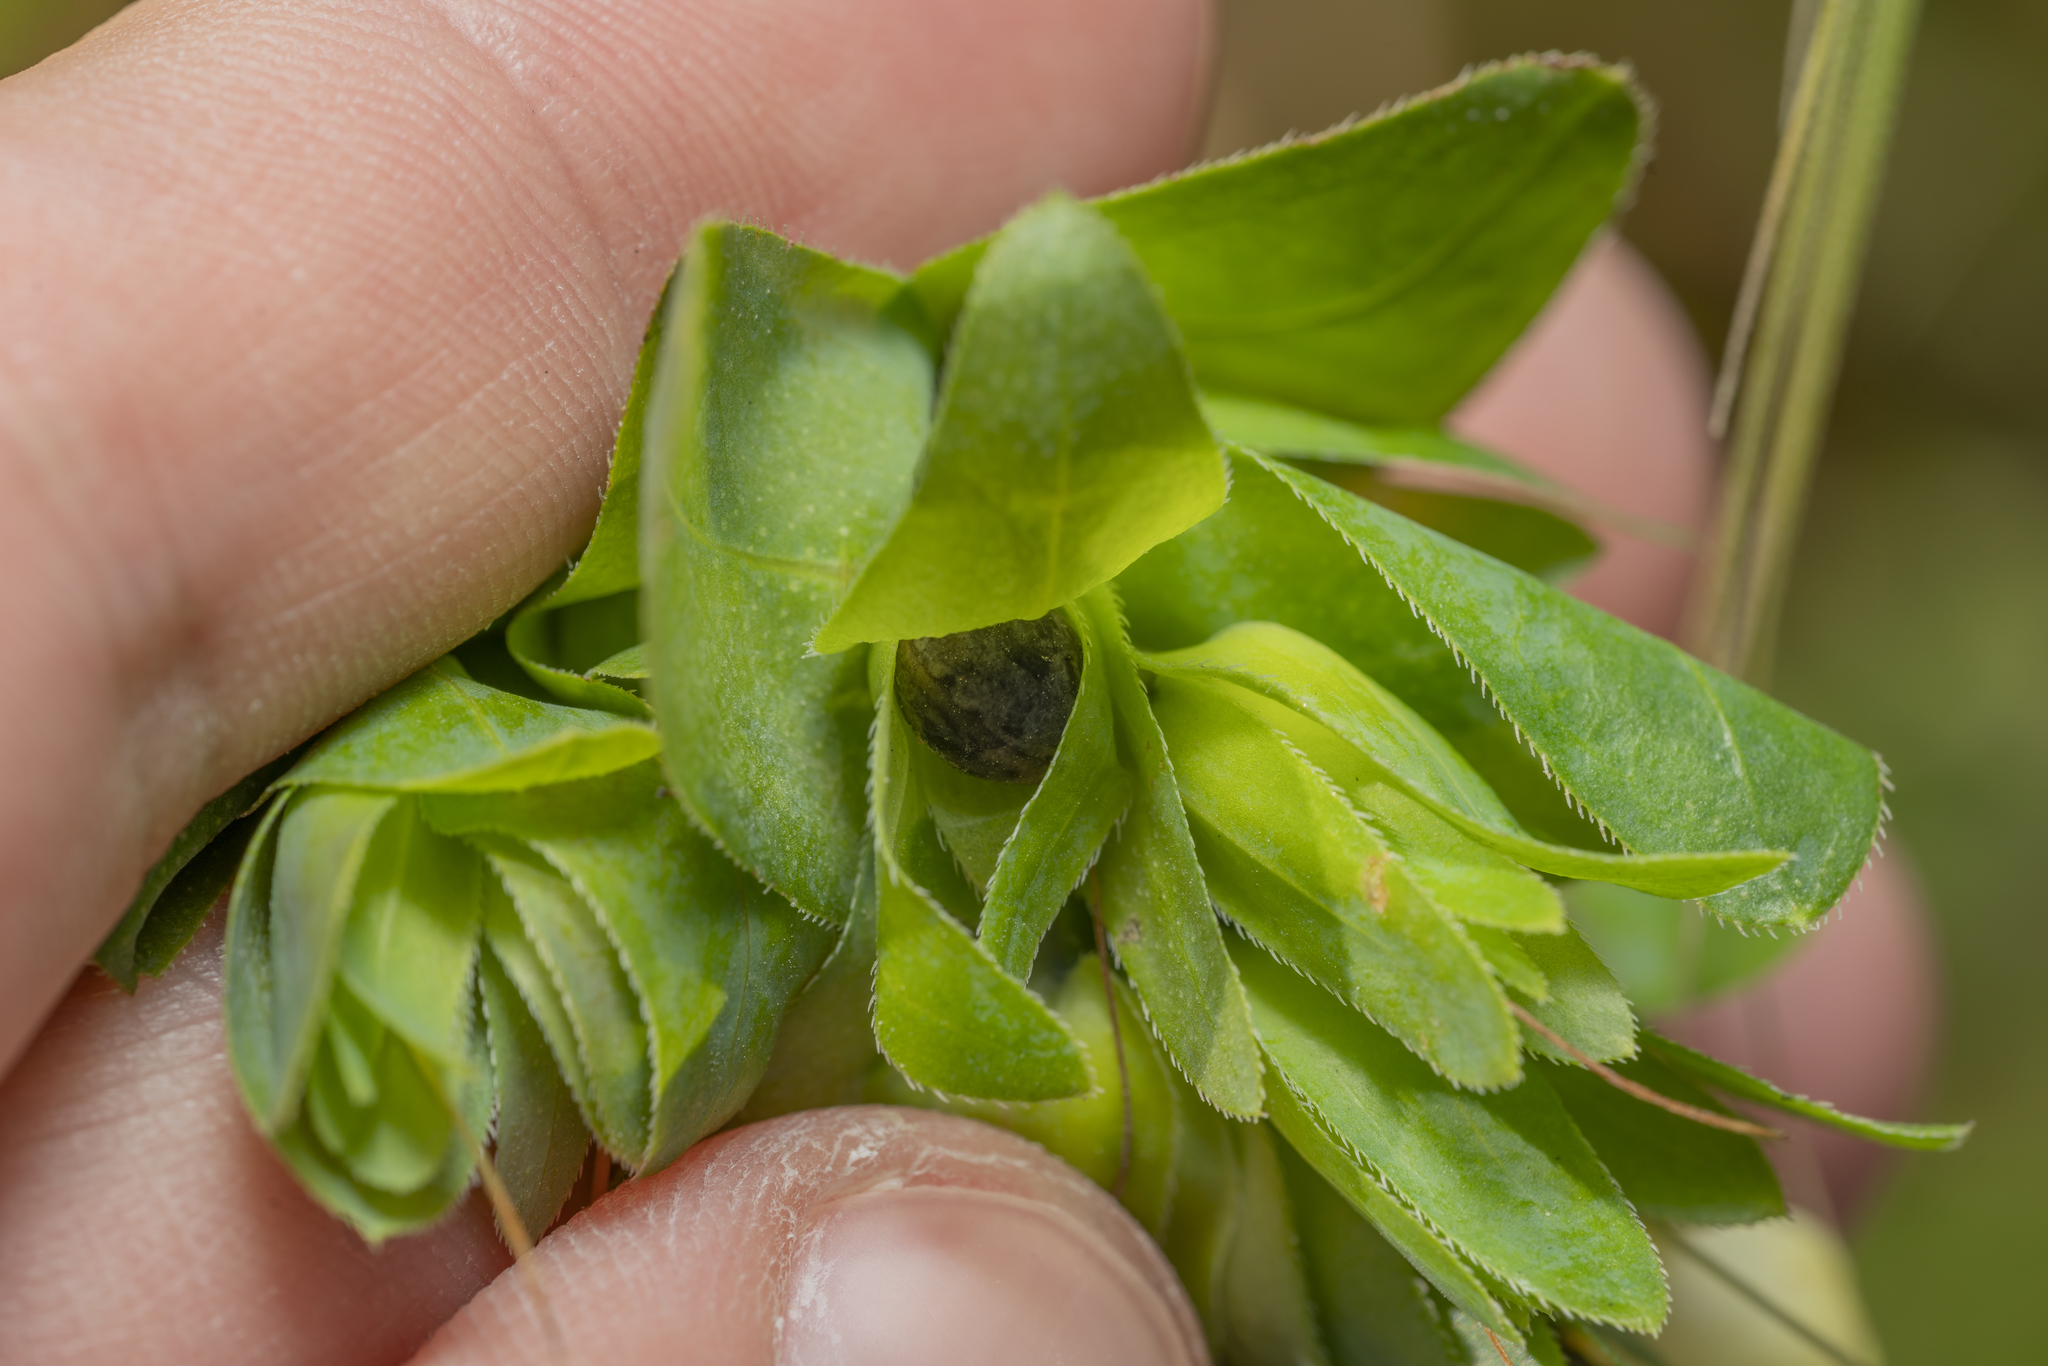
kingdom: Plantae
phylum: Tracheophyta
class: Magnoliopsida
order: Boraginales
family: Boraginaceae
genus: Cerinthe
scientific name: Cerinthe major
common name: Greater honeywort
